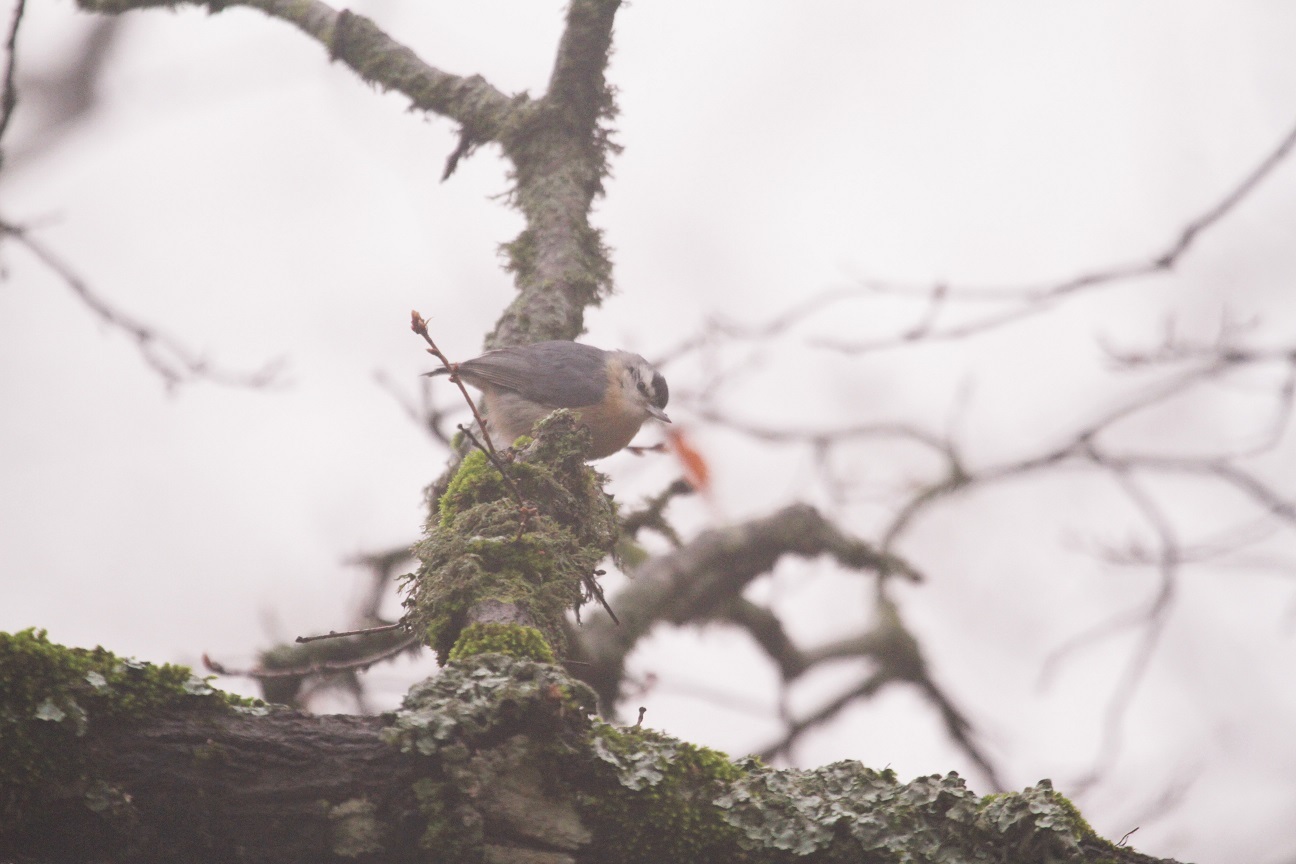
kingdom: Animalia
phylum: Chordata
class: Aves
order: Passeriformes
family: Sittidae
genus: Sitta
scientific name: Sitta ledanti
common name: Algerian nuthatch
